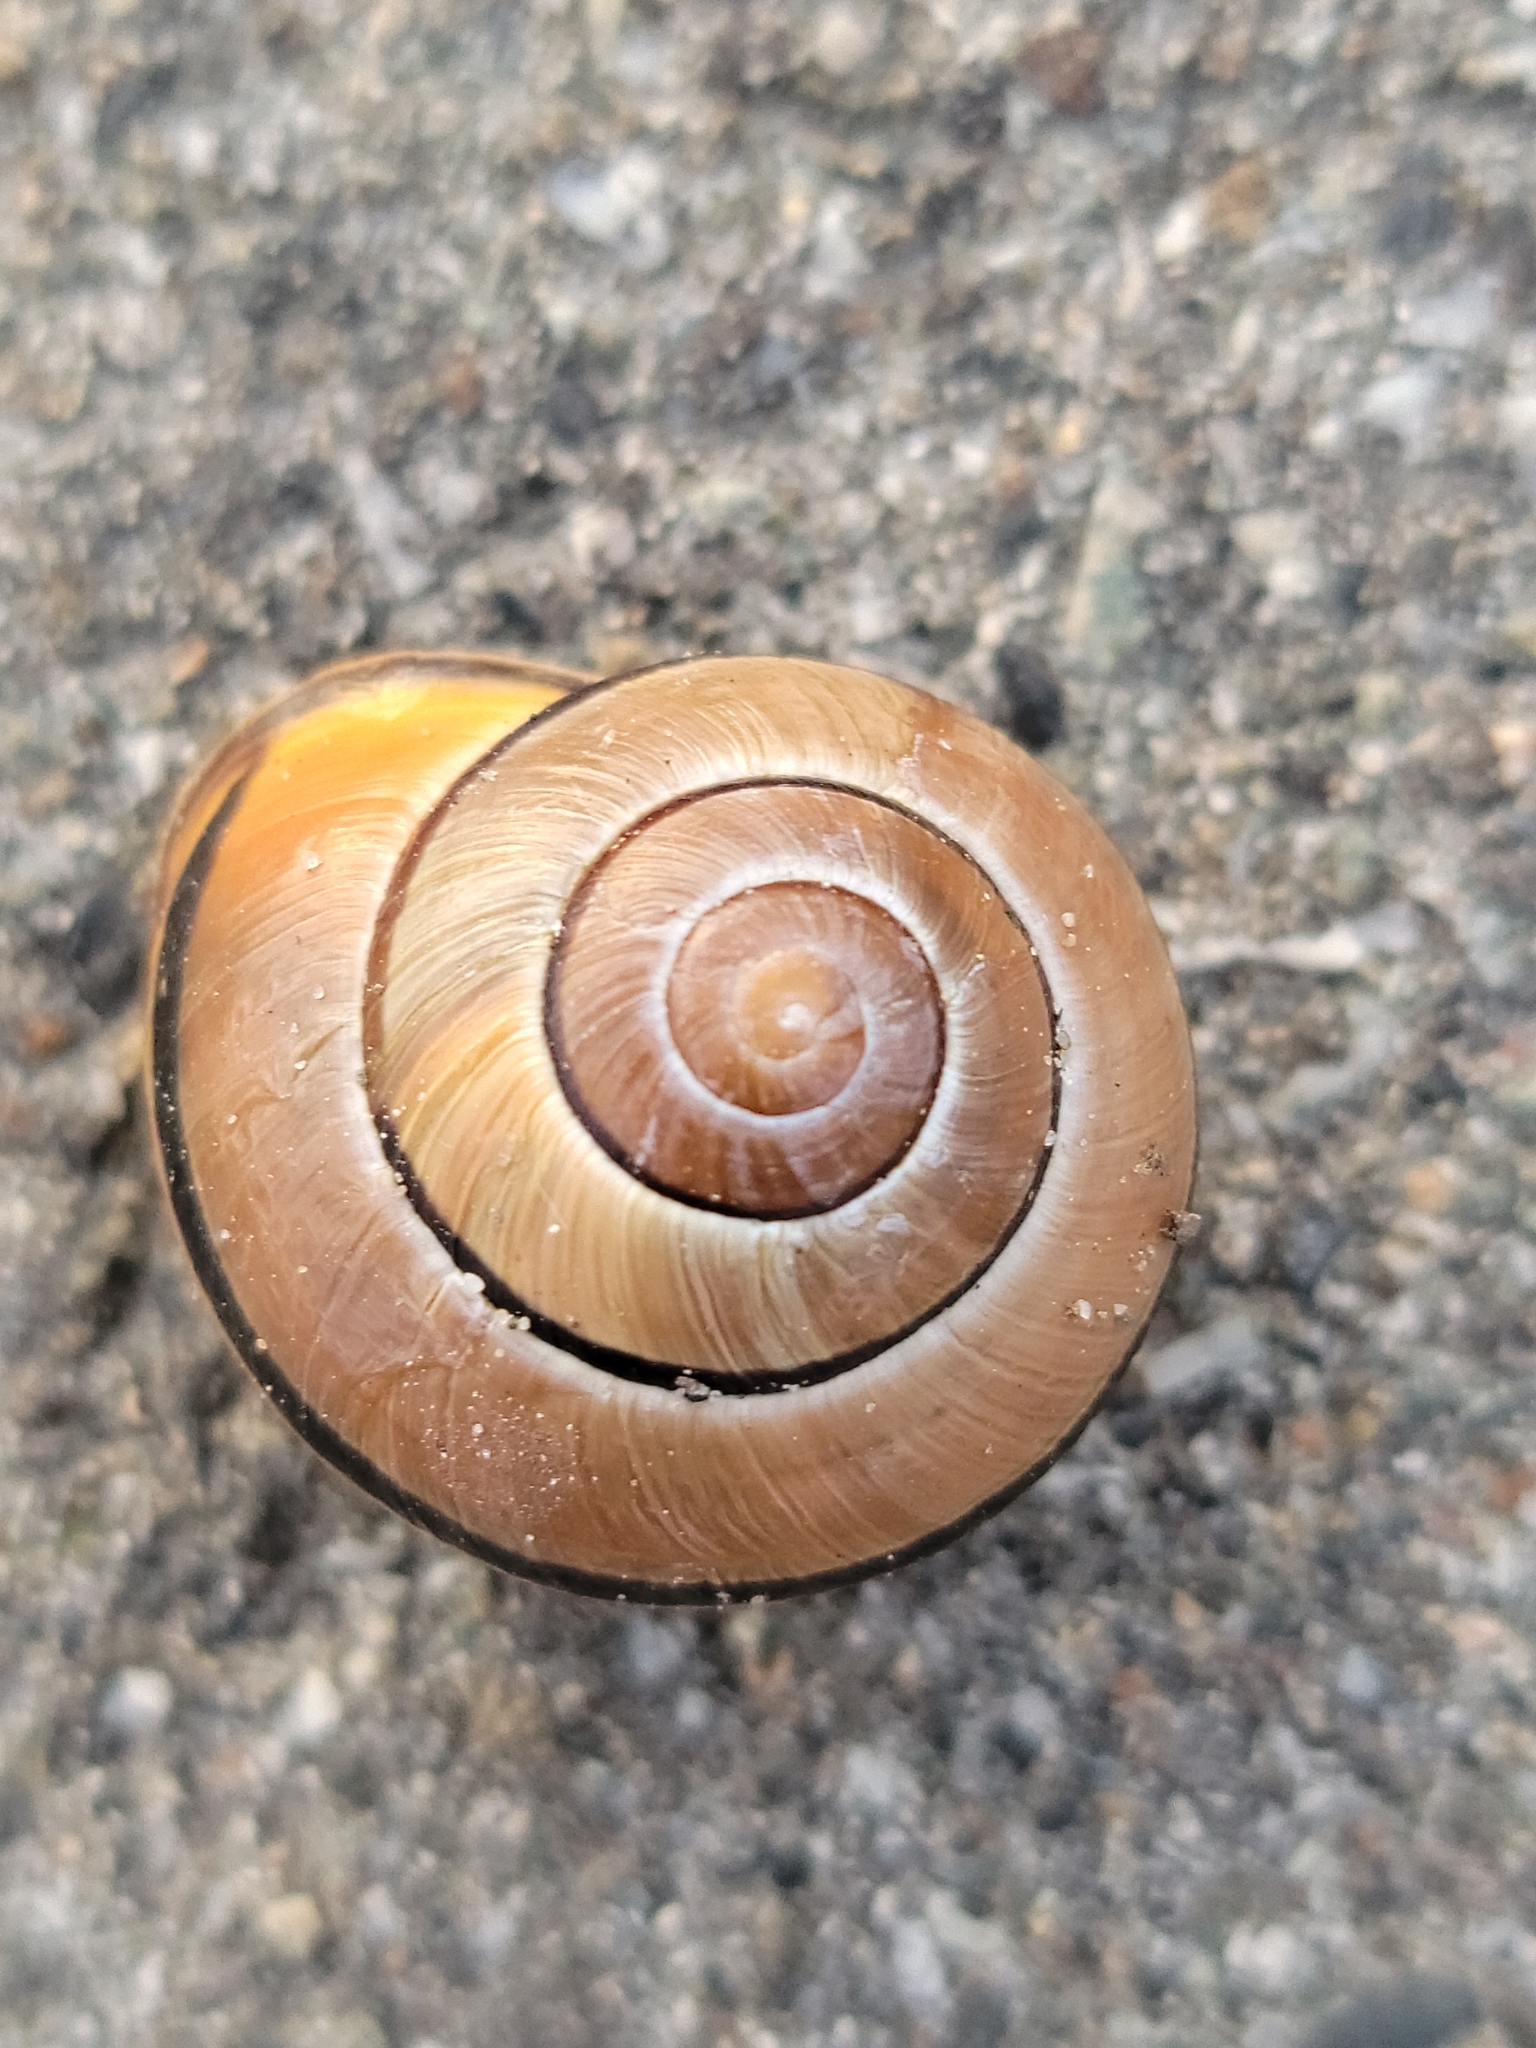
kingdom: Animalia
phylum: Mollusca
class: Gastropoda
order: Stylommatophora
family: Helicidae
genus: Cepaea
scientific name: Cepaea nemoralis
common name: Grovesnail
